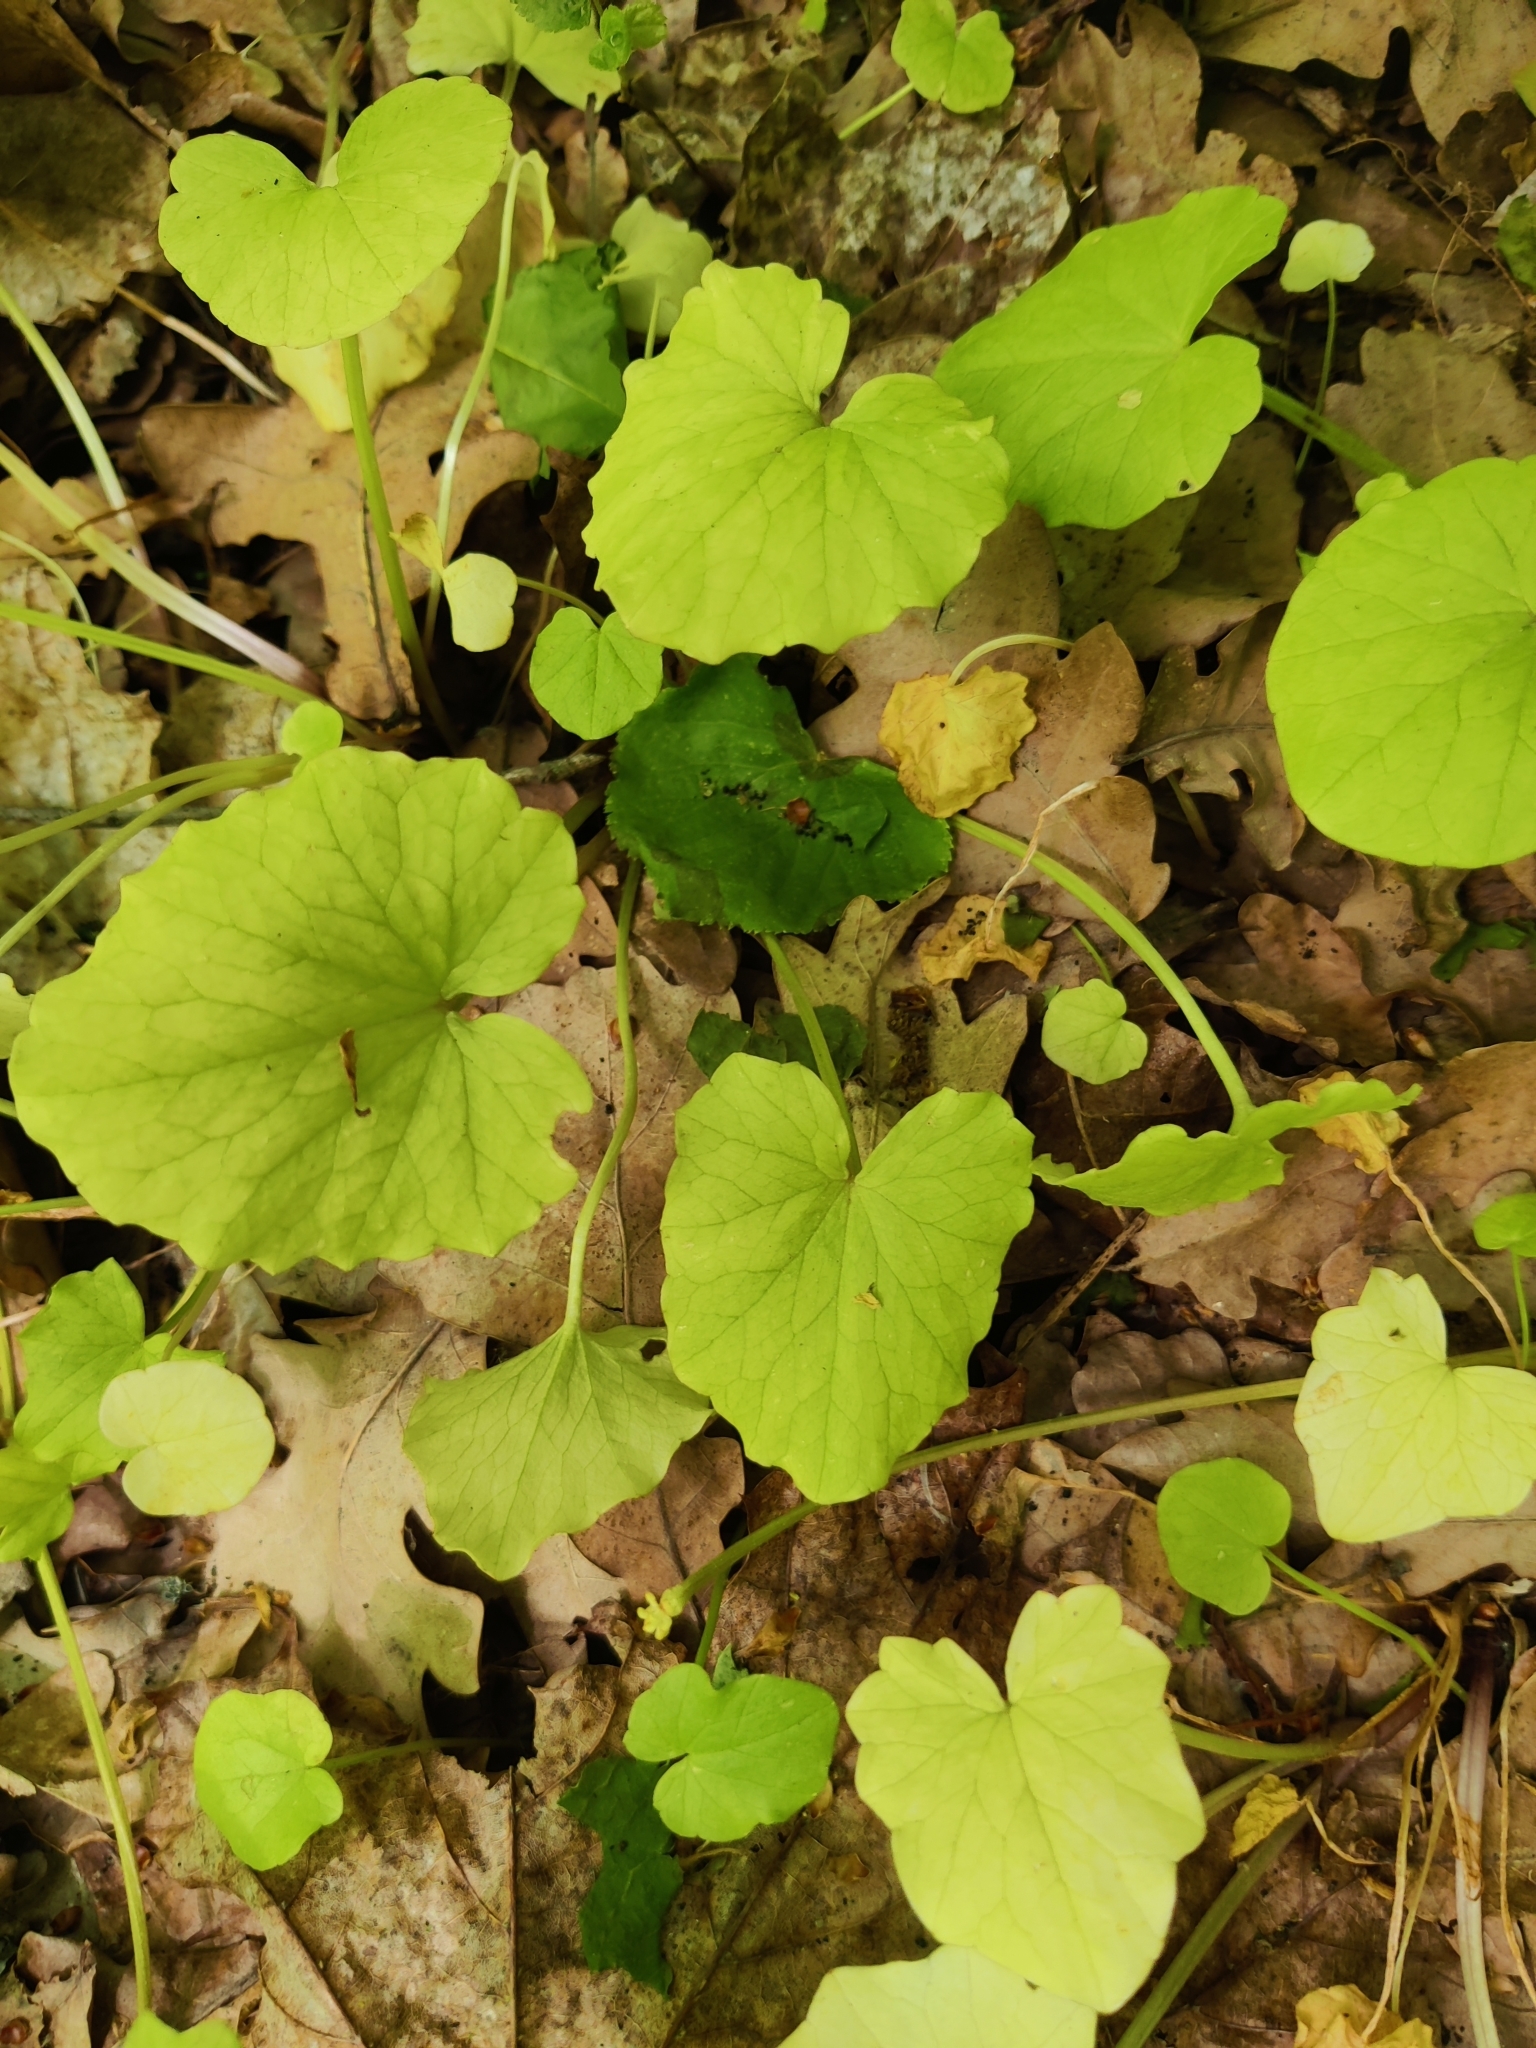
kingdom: Plantae
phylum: Tracheophyta
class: Magnoliopsida
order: Brassicales
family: Brassicaceae
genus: Alliaria
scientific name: Alliaria petiolata
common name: Garlic mustard
